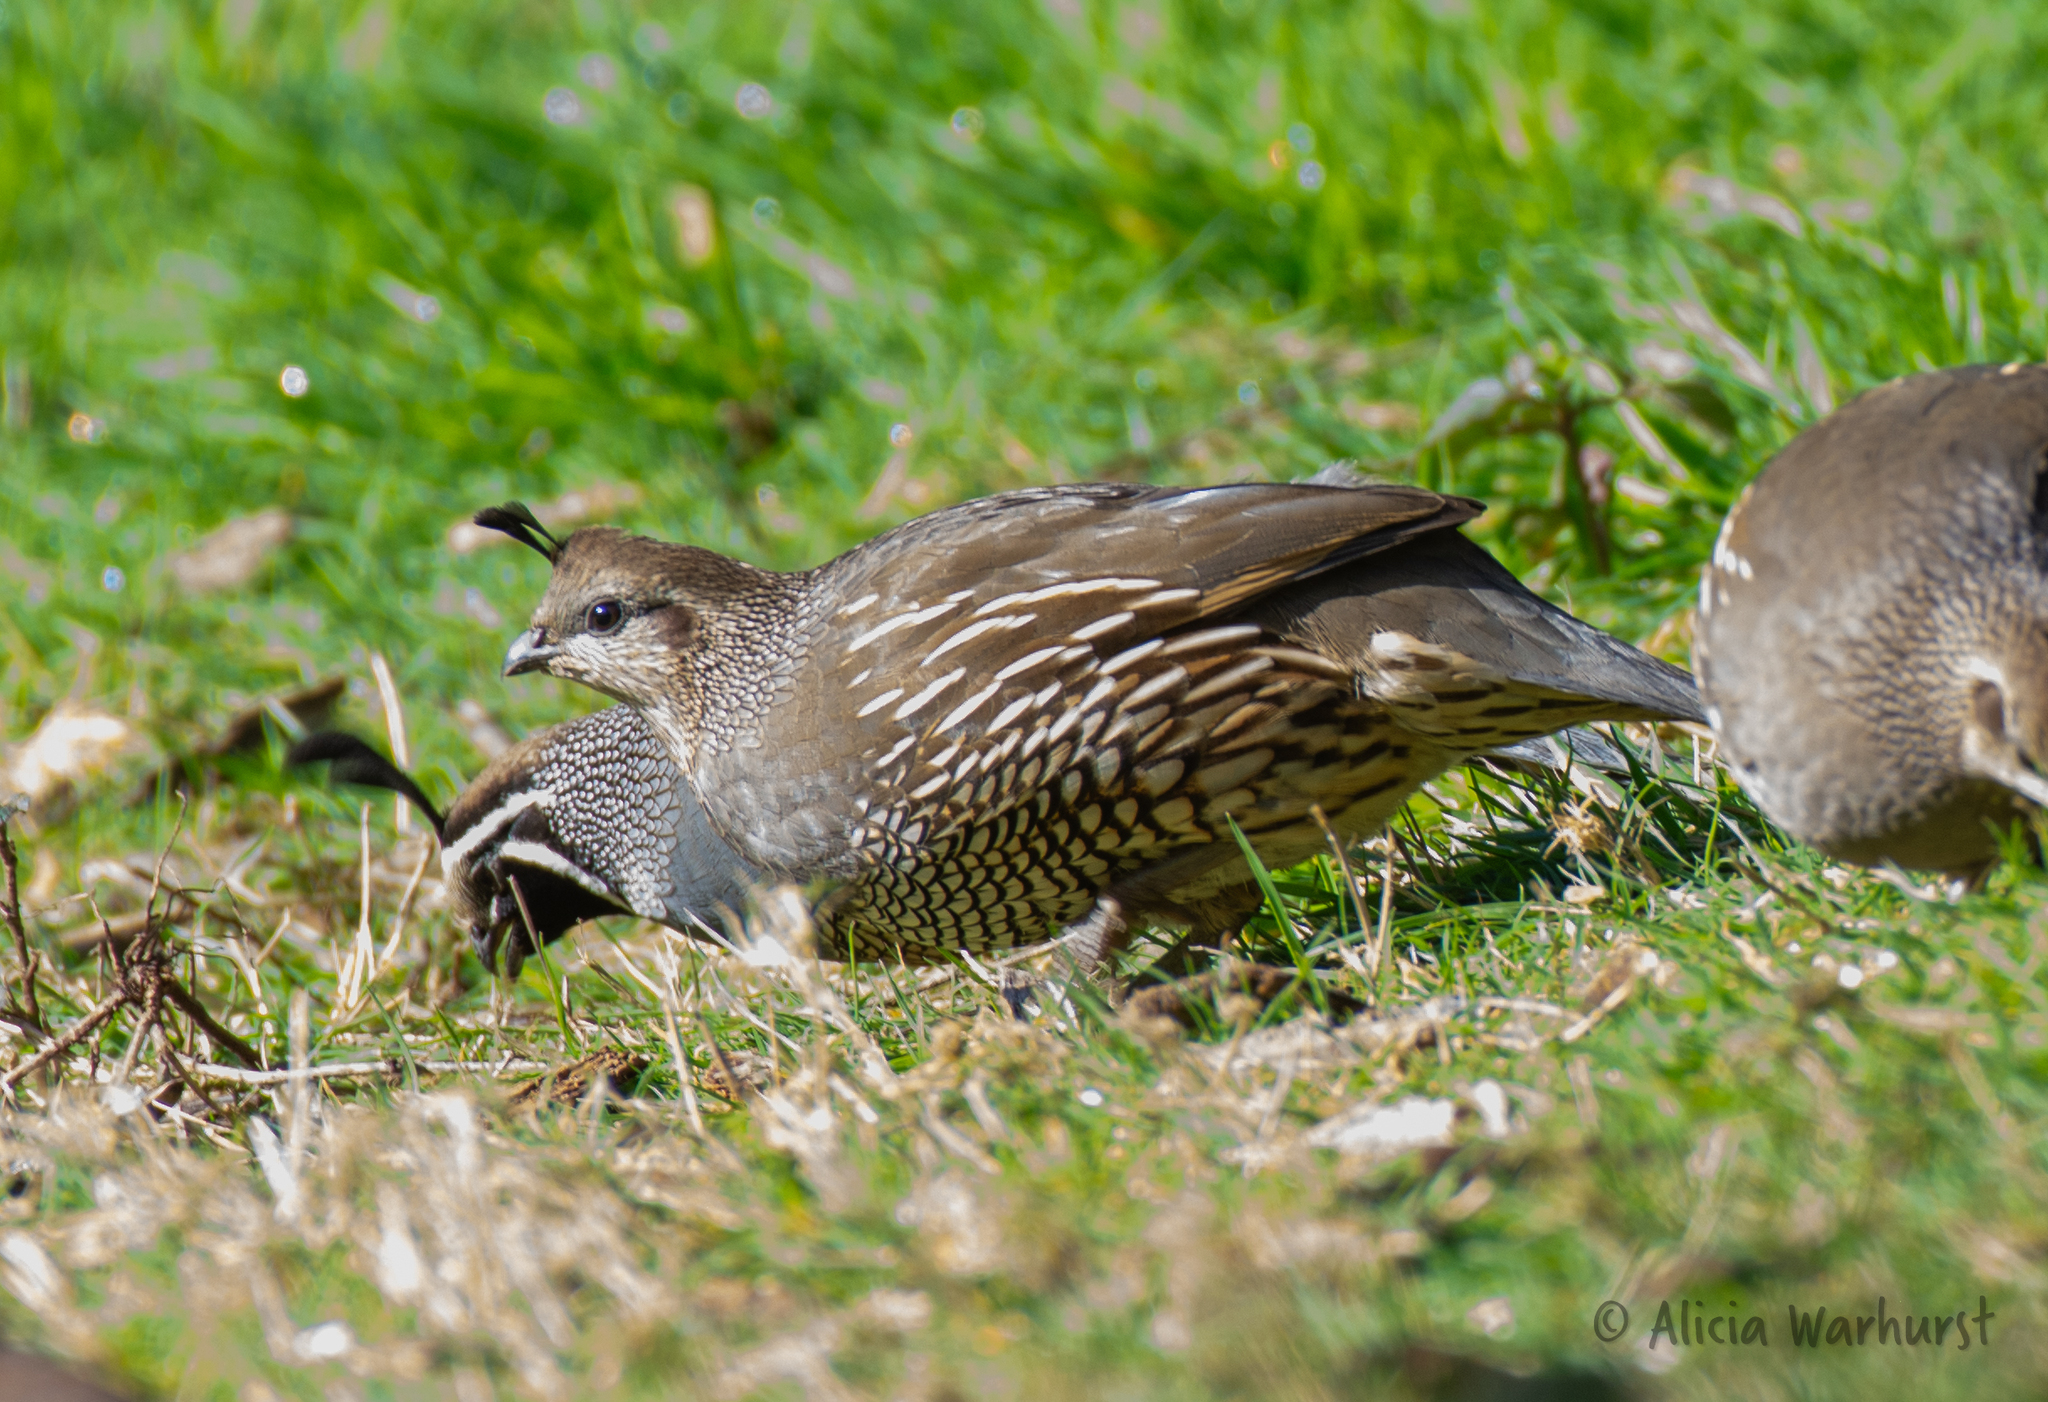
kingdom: Animalia
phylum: Chordata
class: Aves
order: Galliformes
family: Odontophoridae
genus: Callipepla
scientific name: Callipepla californica
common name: California quail
